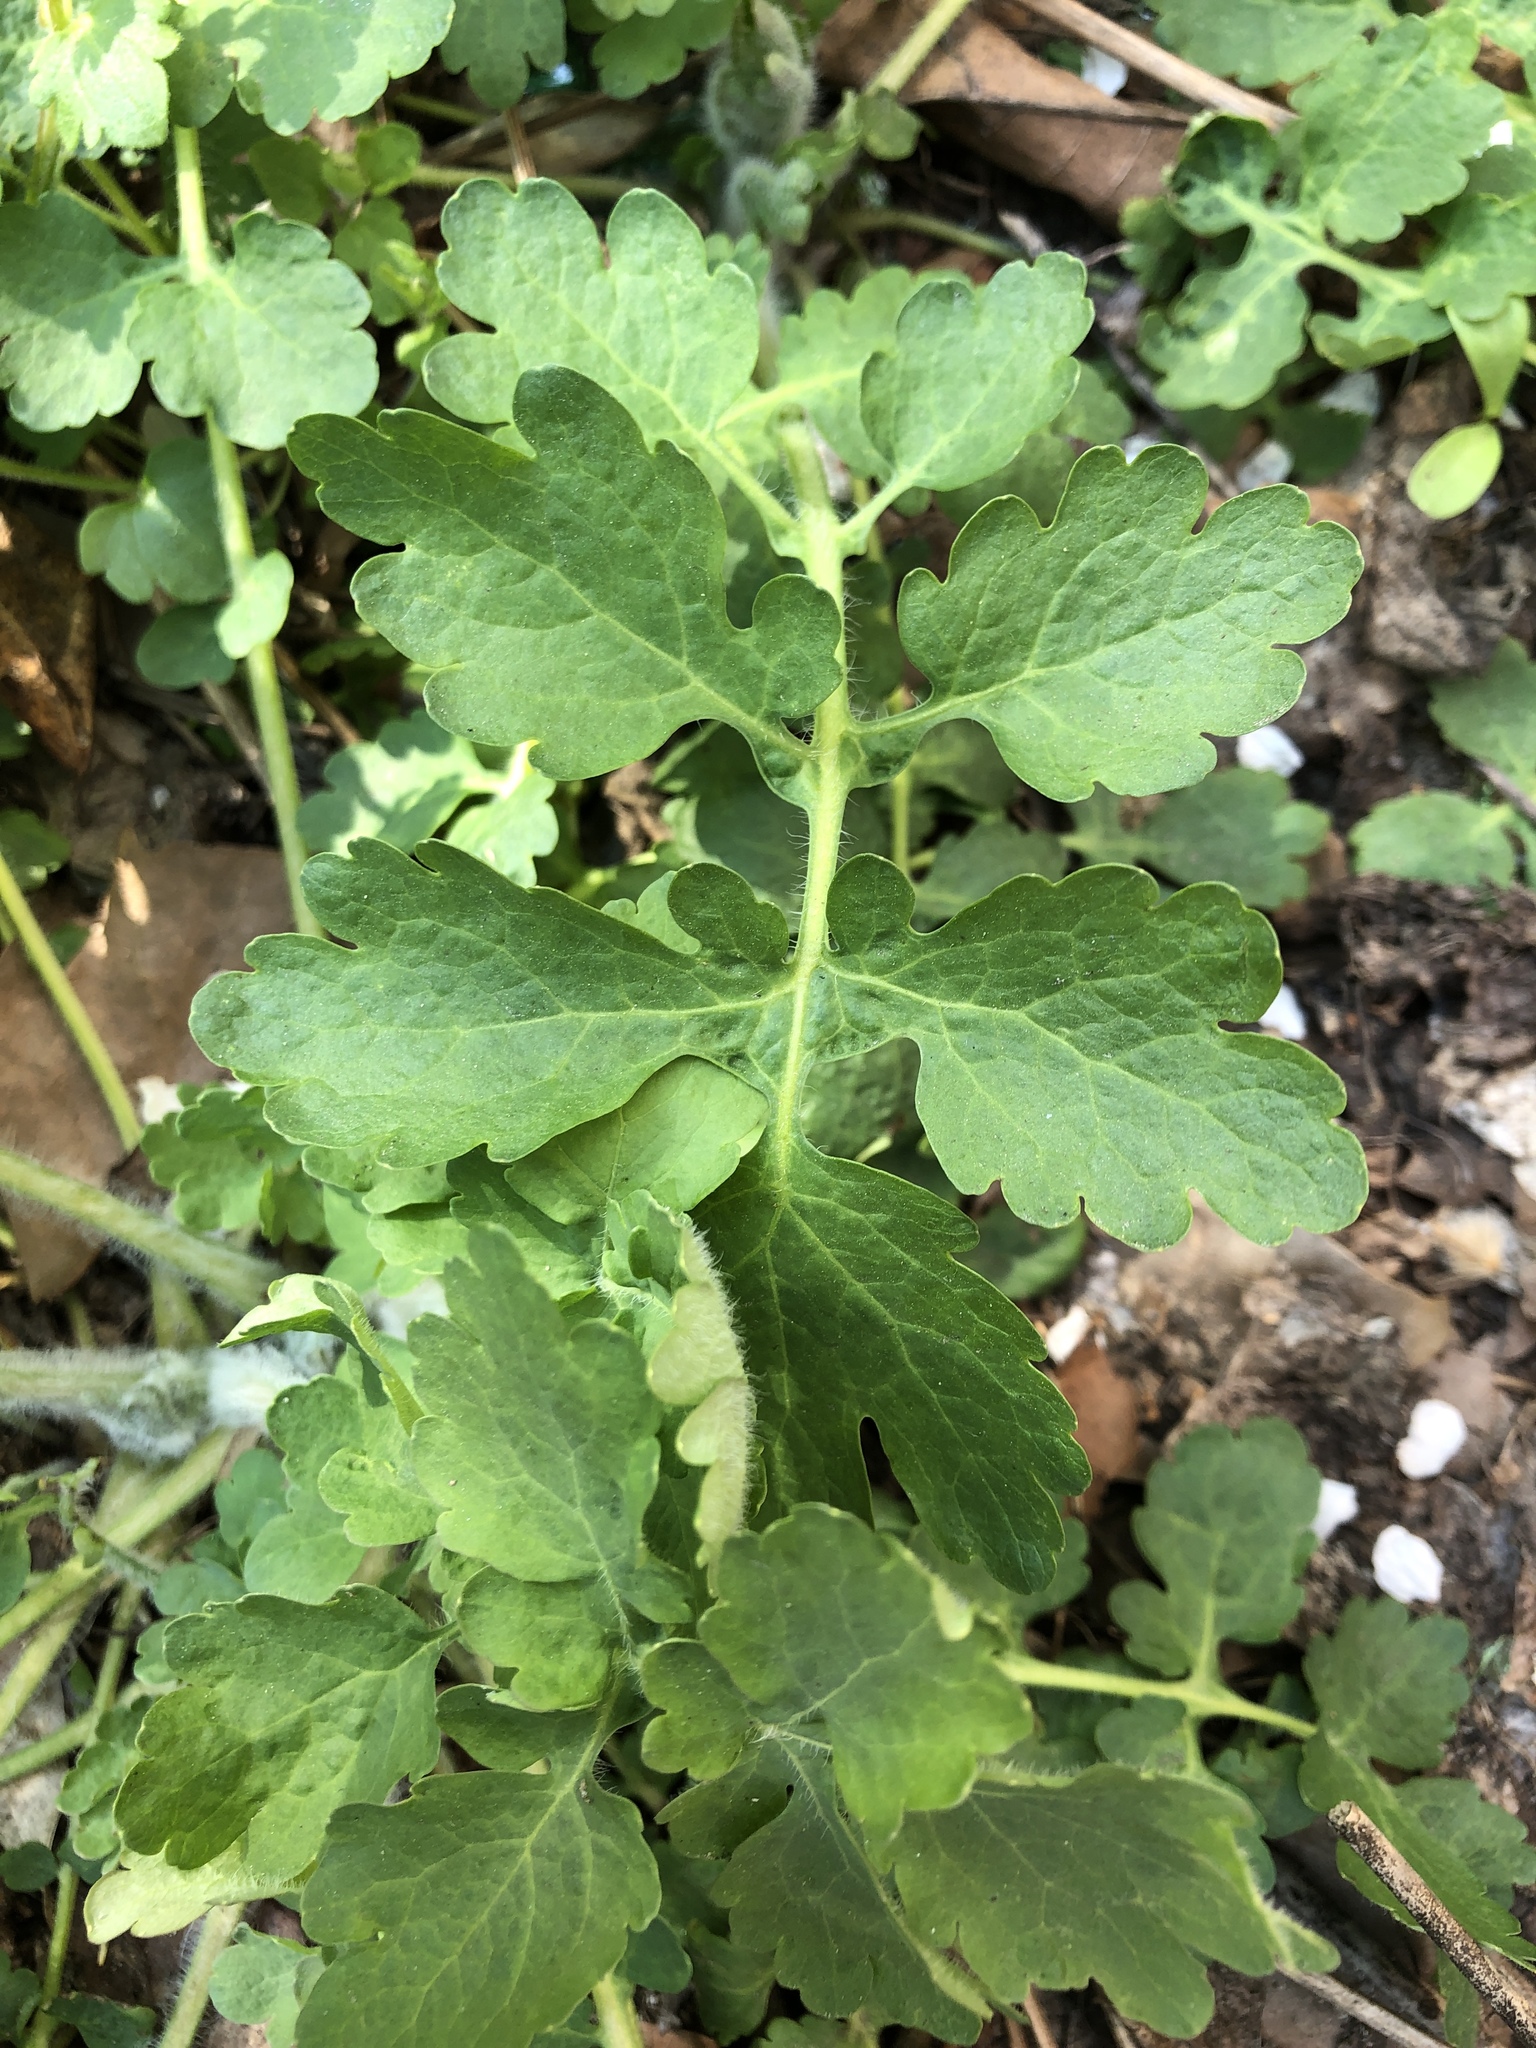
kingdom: Plantae
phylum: Tracheophyta
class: Magnoliopsida
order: Ranunculales
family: Papaveraceae
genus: Chelidonium
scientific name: Chelidonium majus
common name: Greater celandine
